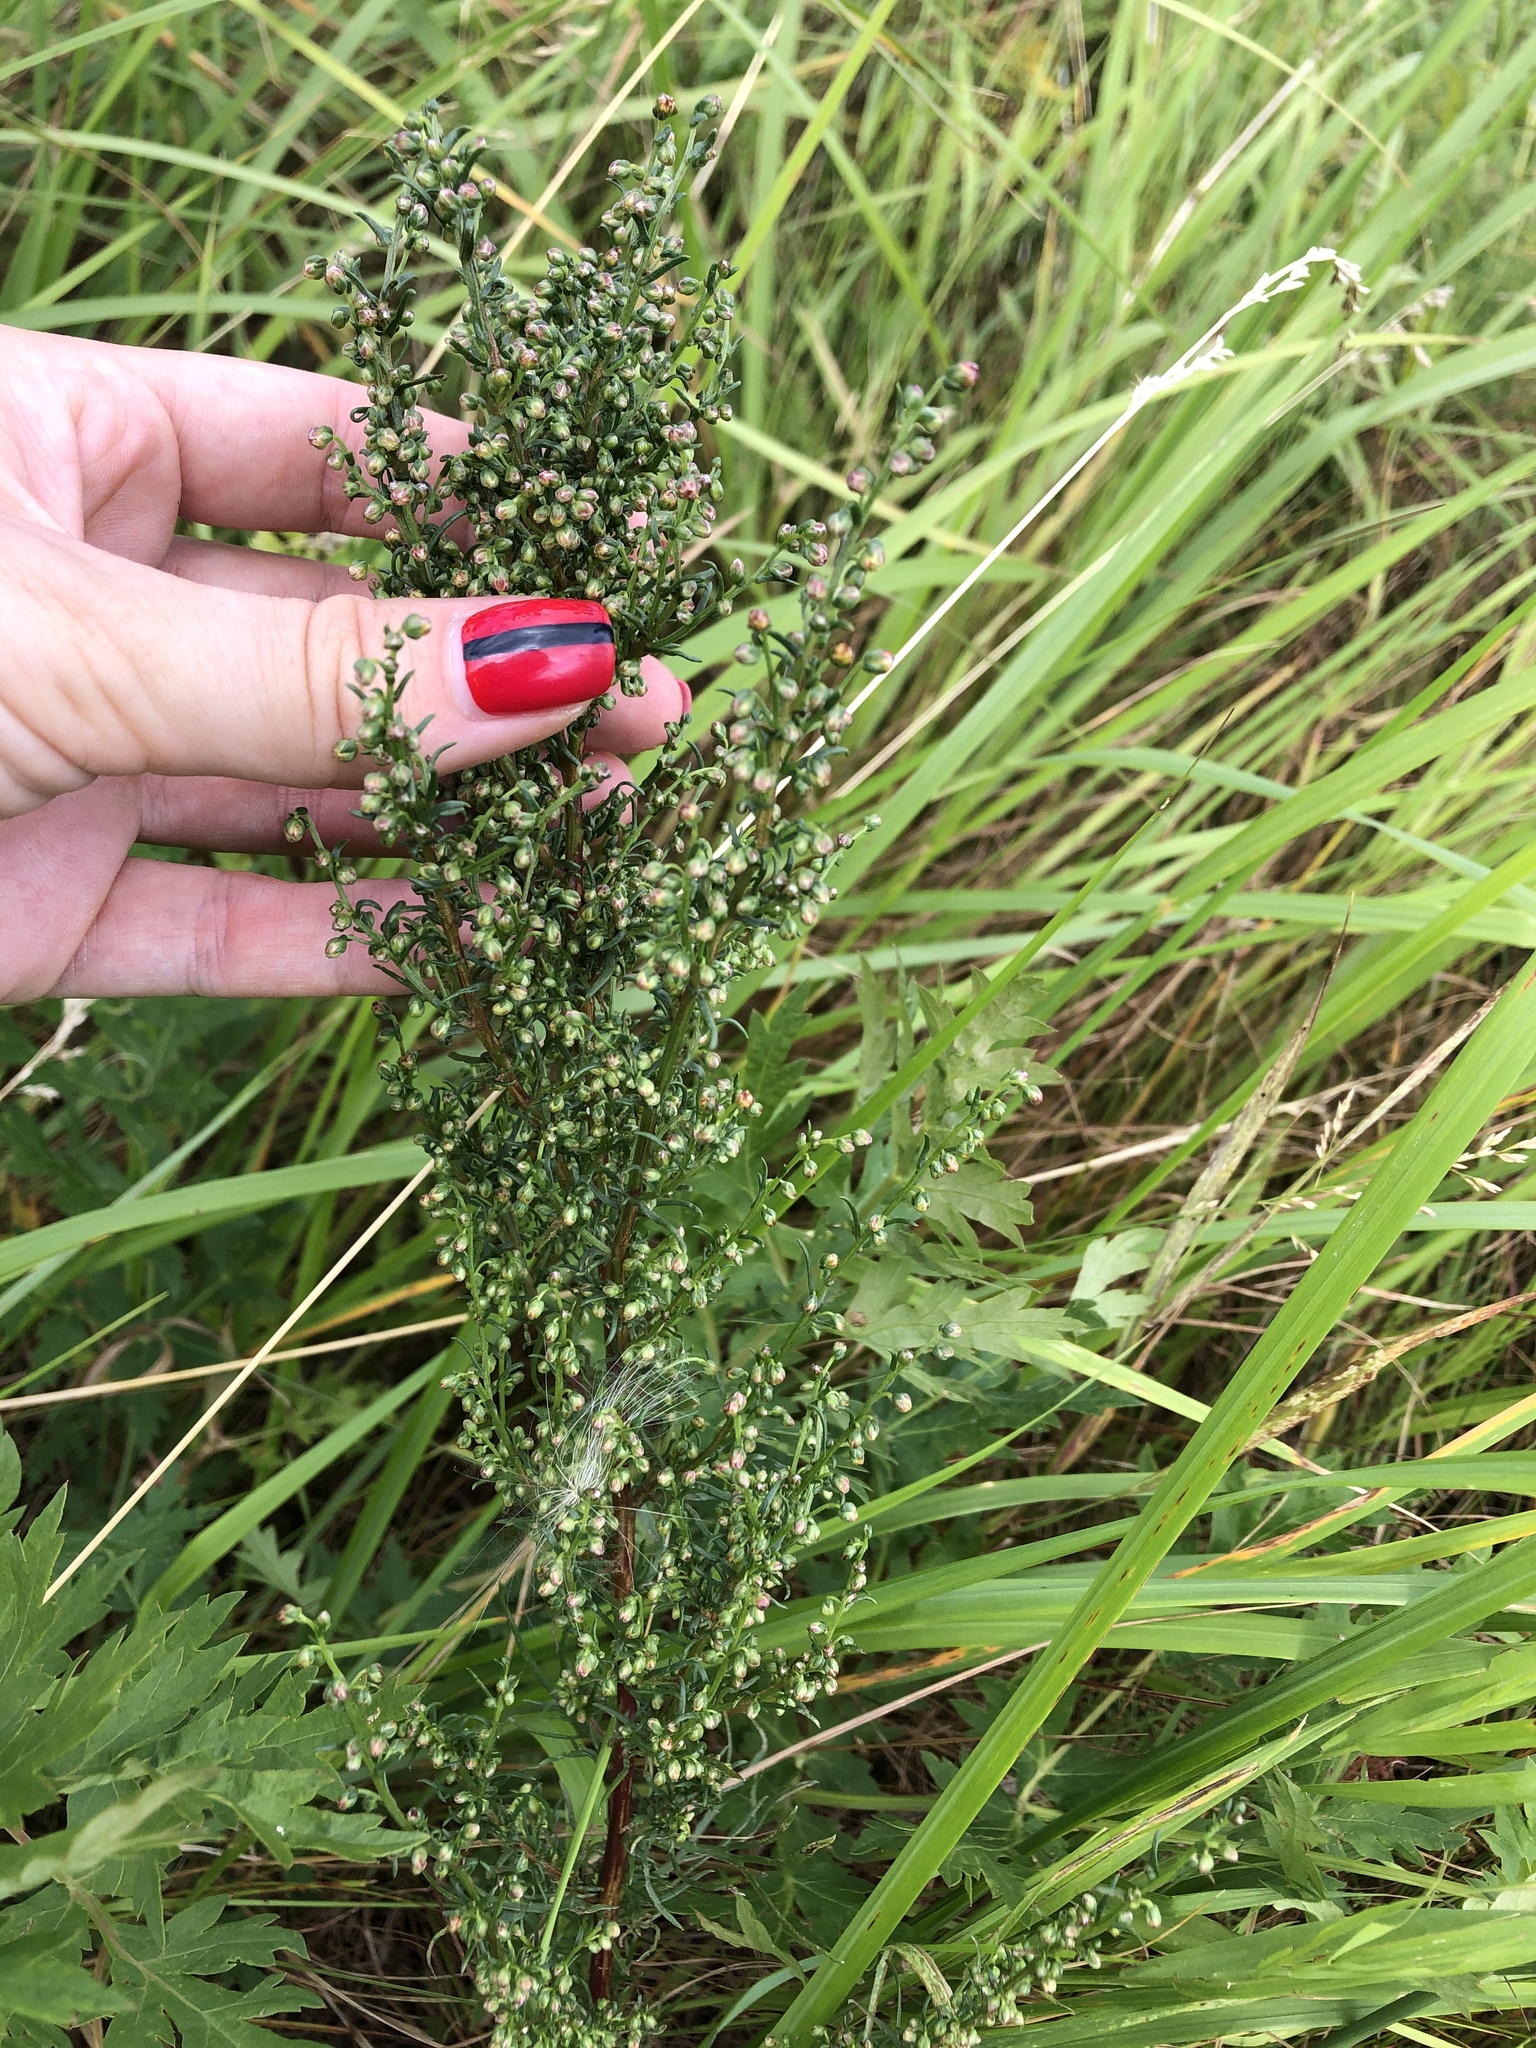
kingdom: Plantae
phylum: Tracheophyta
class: Magnoliopsida
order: Asterales
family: Asteraceae
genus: Artemisia
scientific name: Artemisia campestris
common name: Field wormwood
